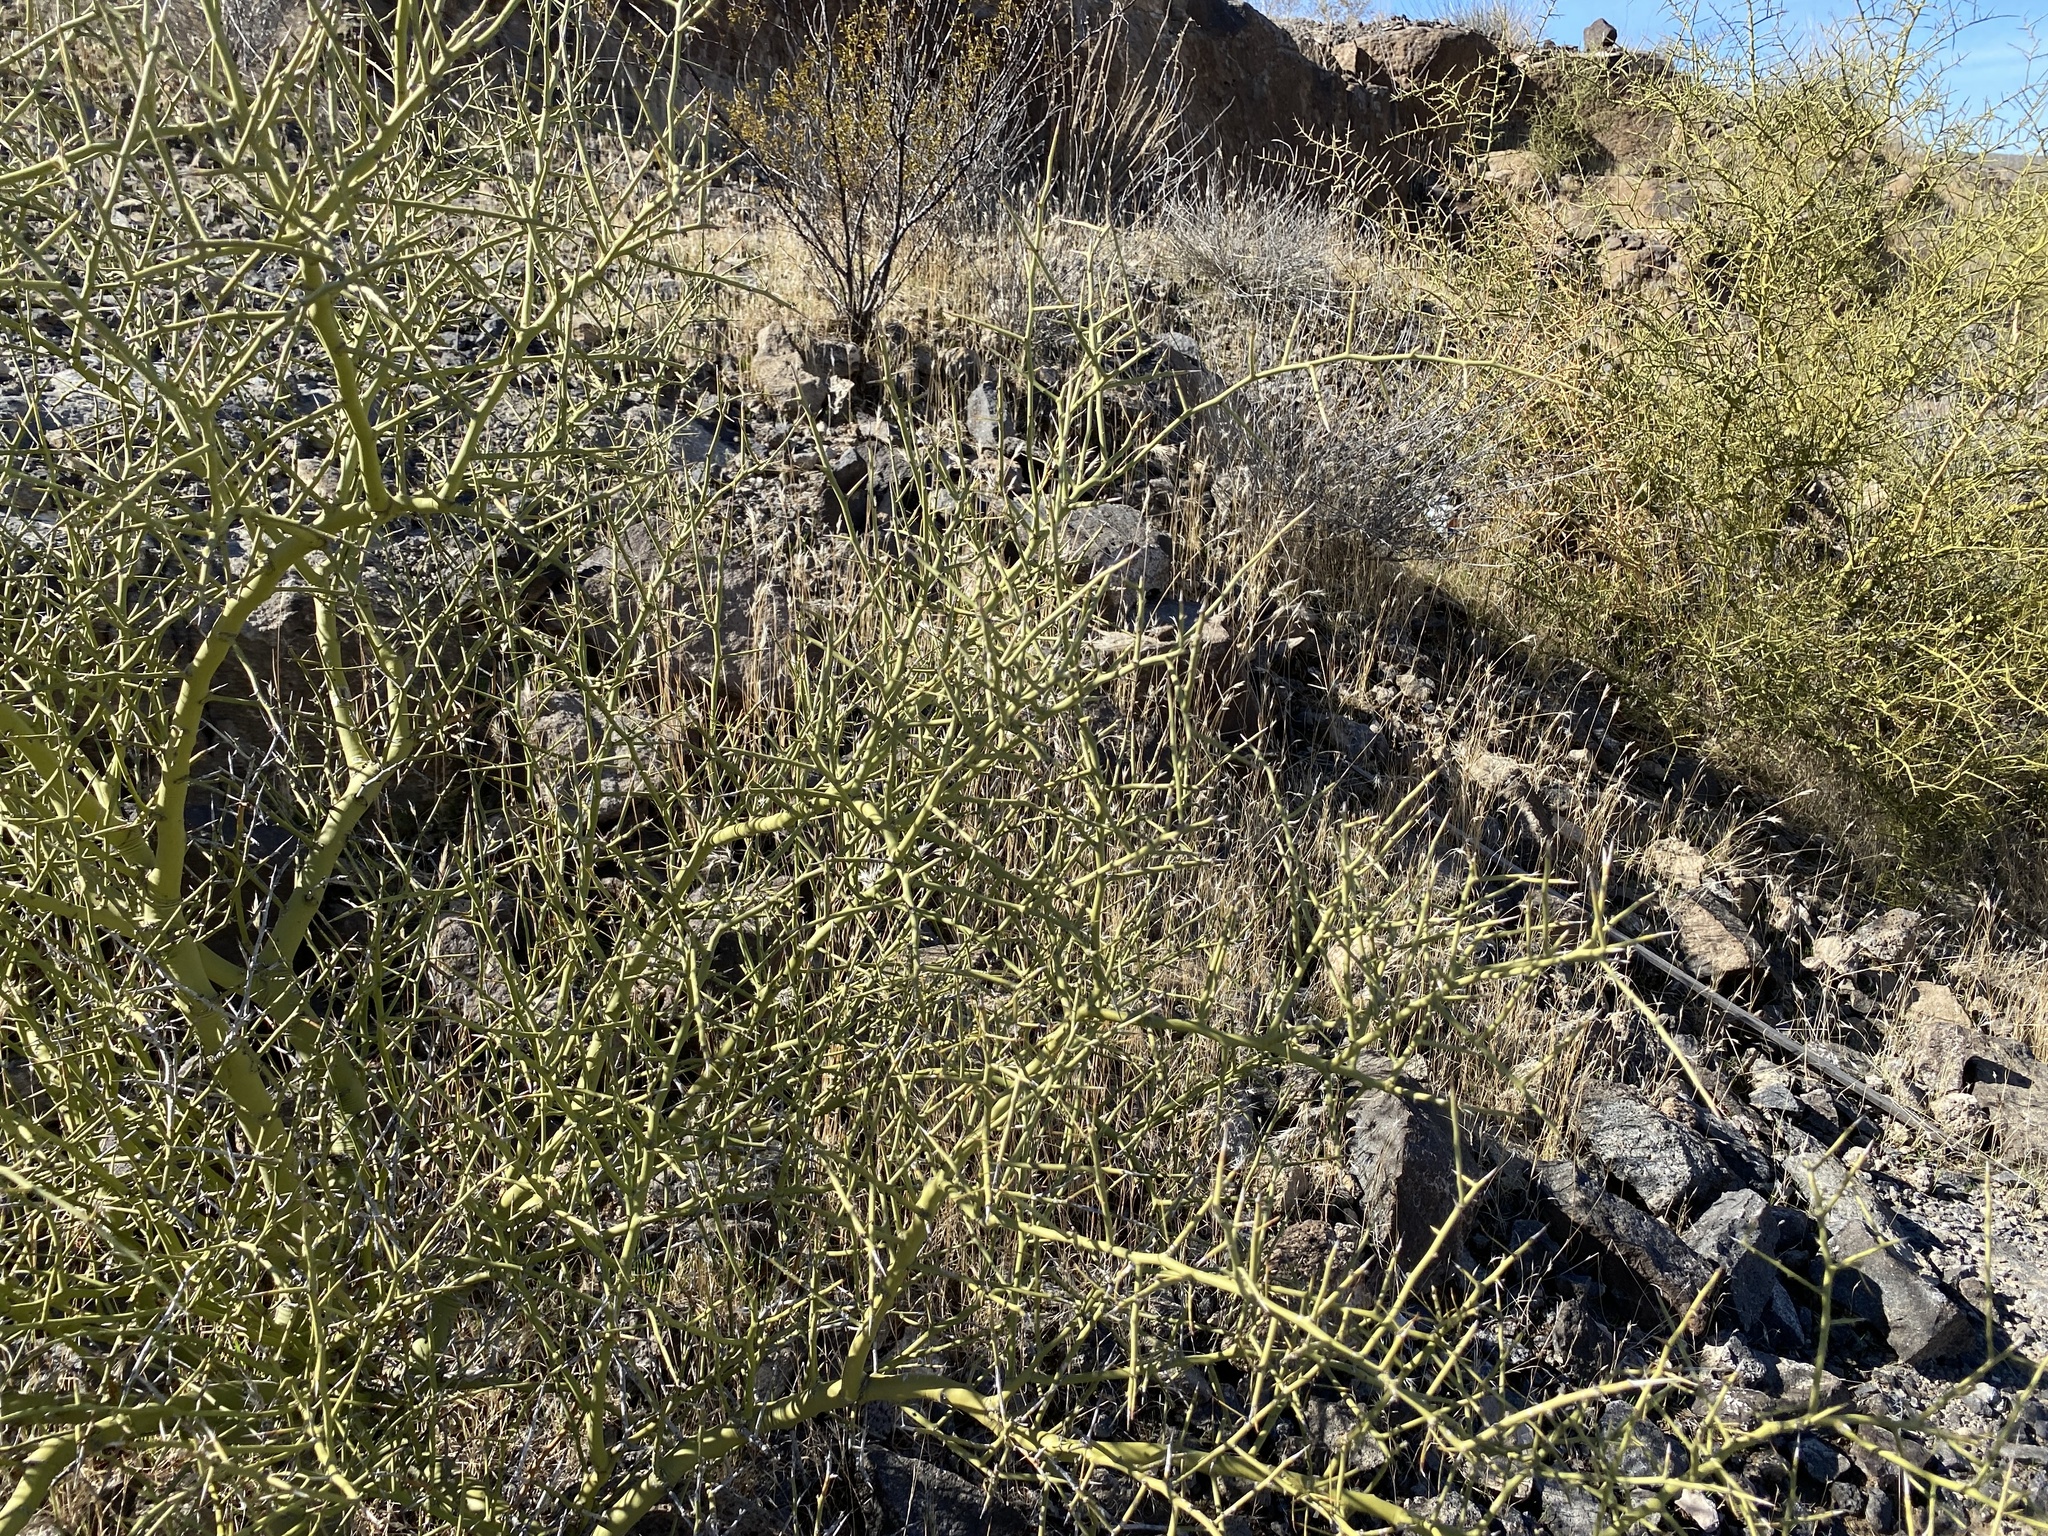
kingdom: Plantae
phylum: Tracheophyta
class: Magnoliopsida
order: Fabales
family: Fabaceae
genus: Parkinsonia
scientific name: Parkinsonia microphylla
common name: Yellow paloverde
